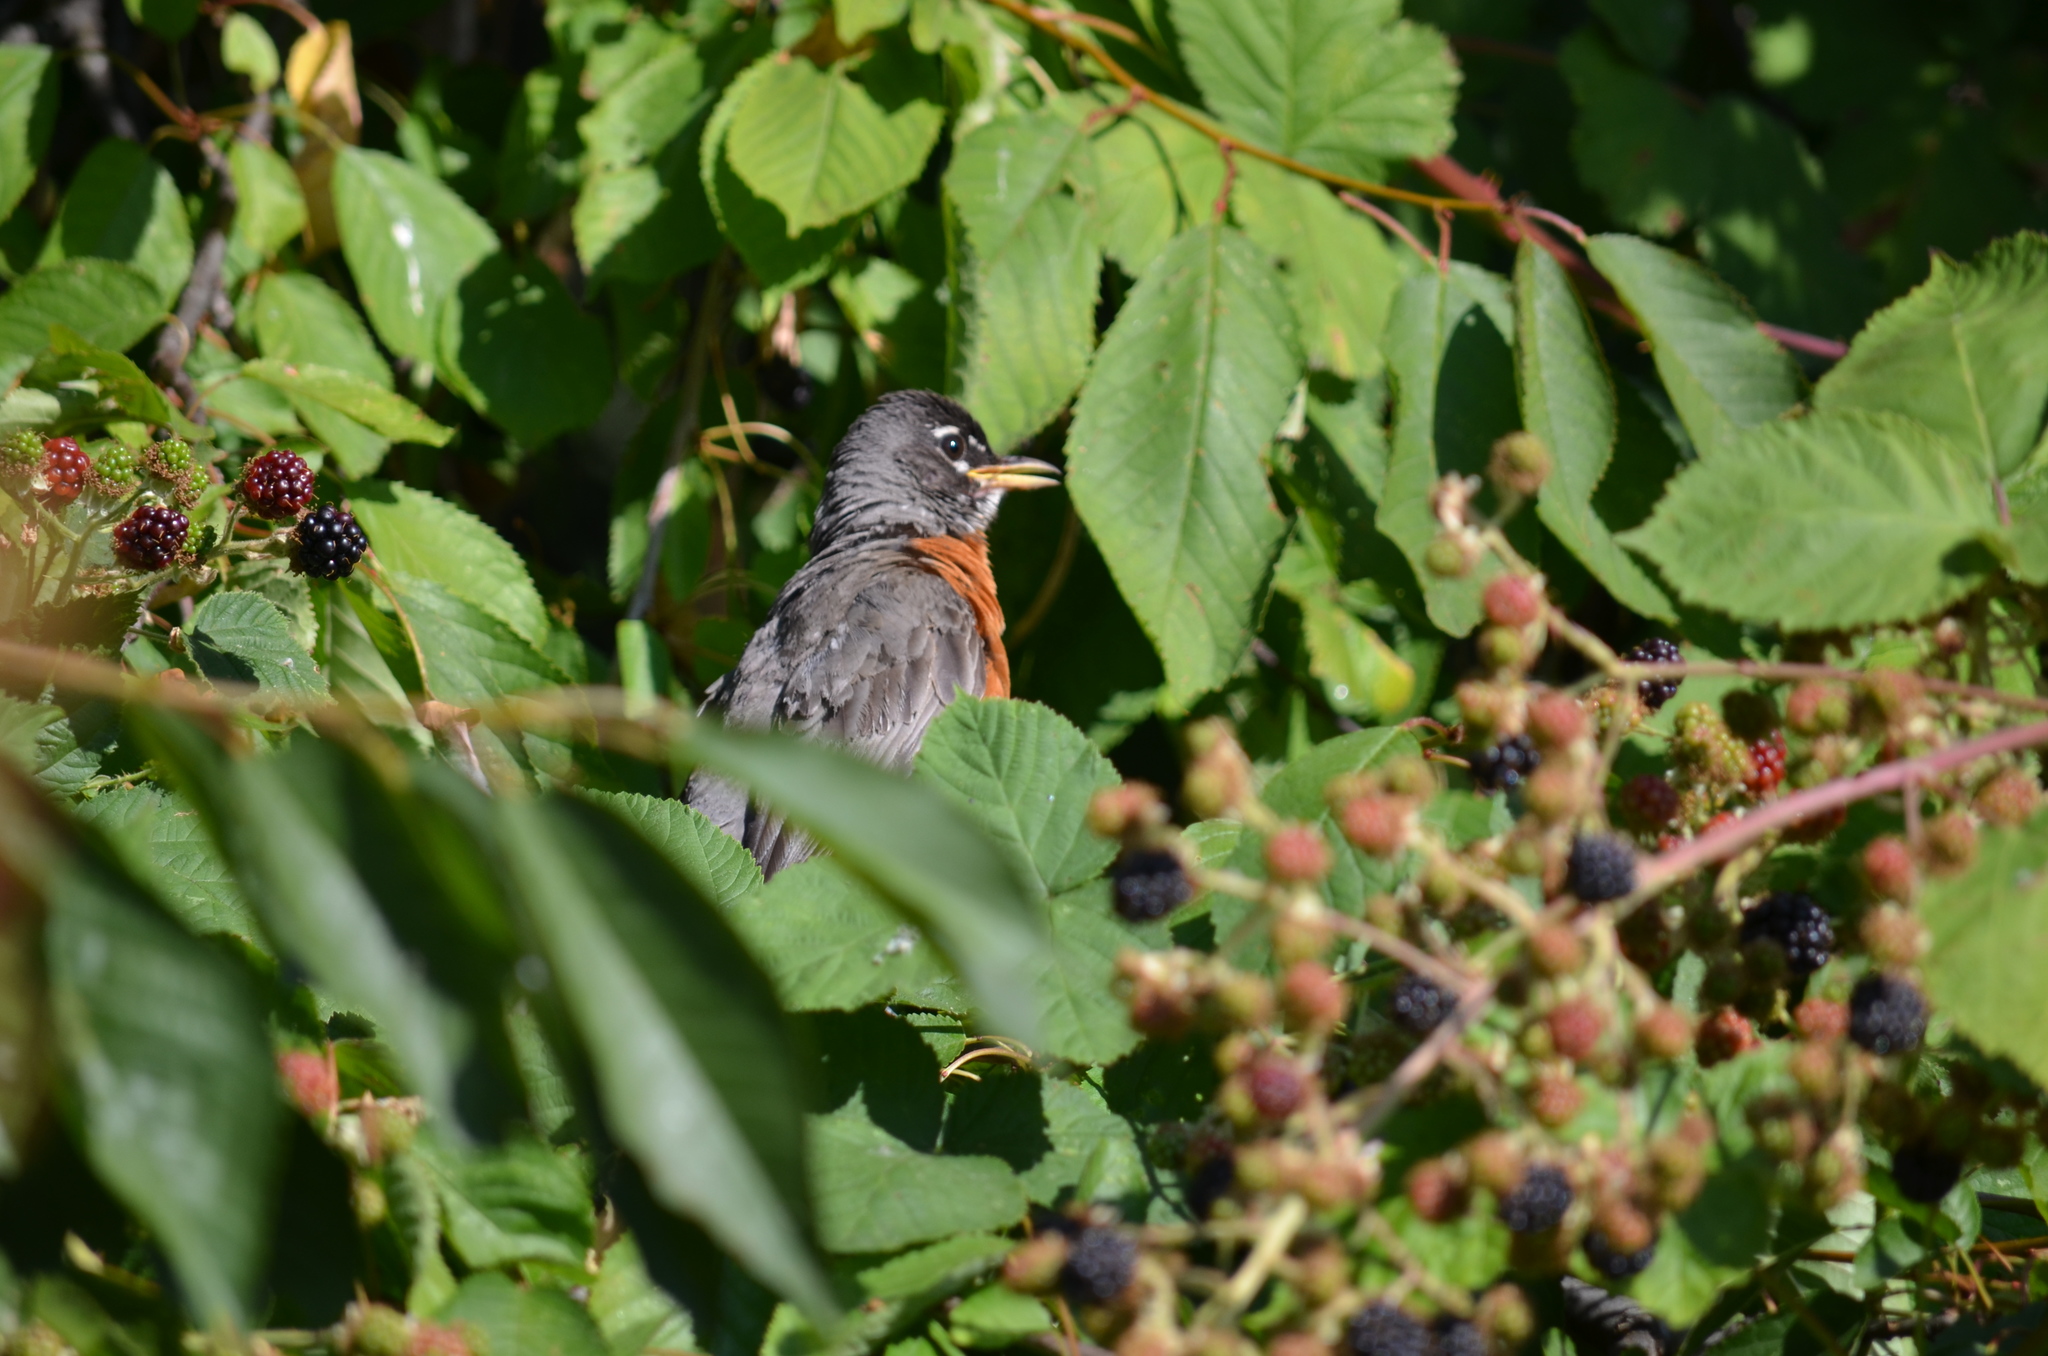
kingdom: Animalia
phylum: Chordata
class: Aves
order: Passeriformes
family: Turdidae
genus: Turdus
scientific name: Turdus migratorius
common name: American robin
